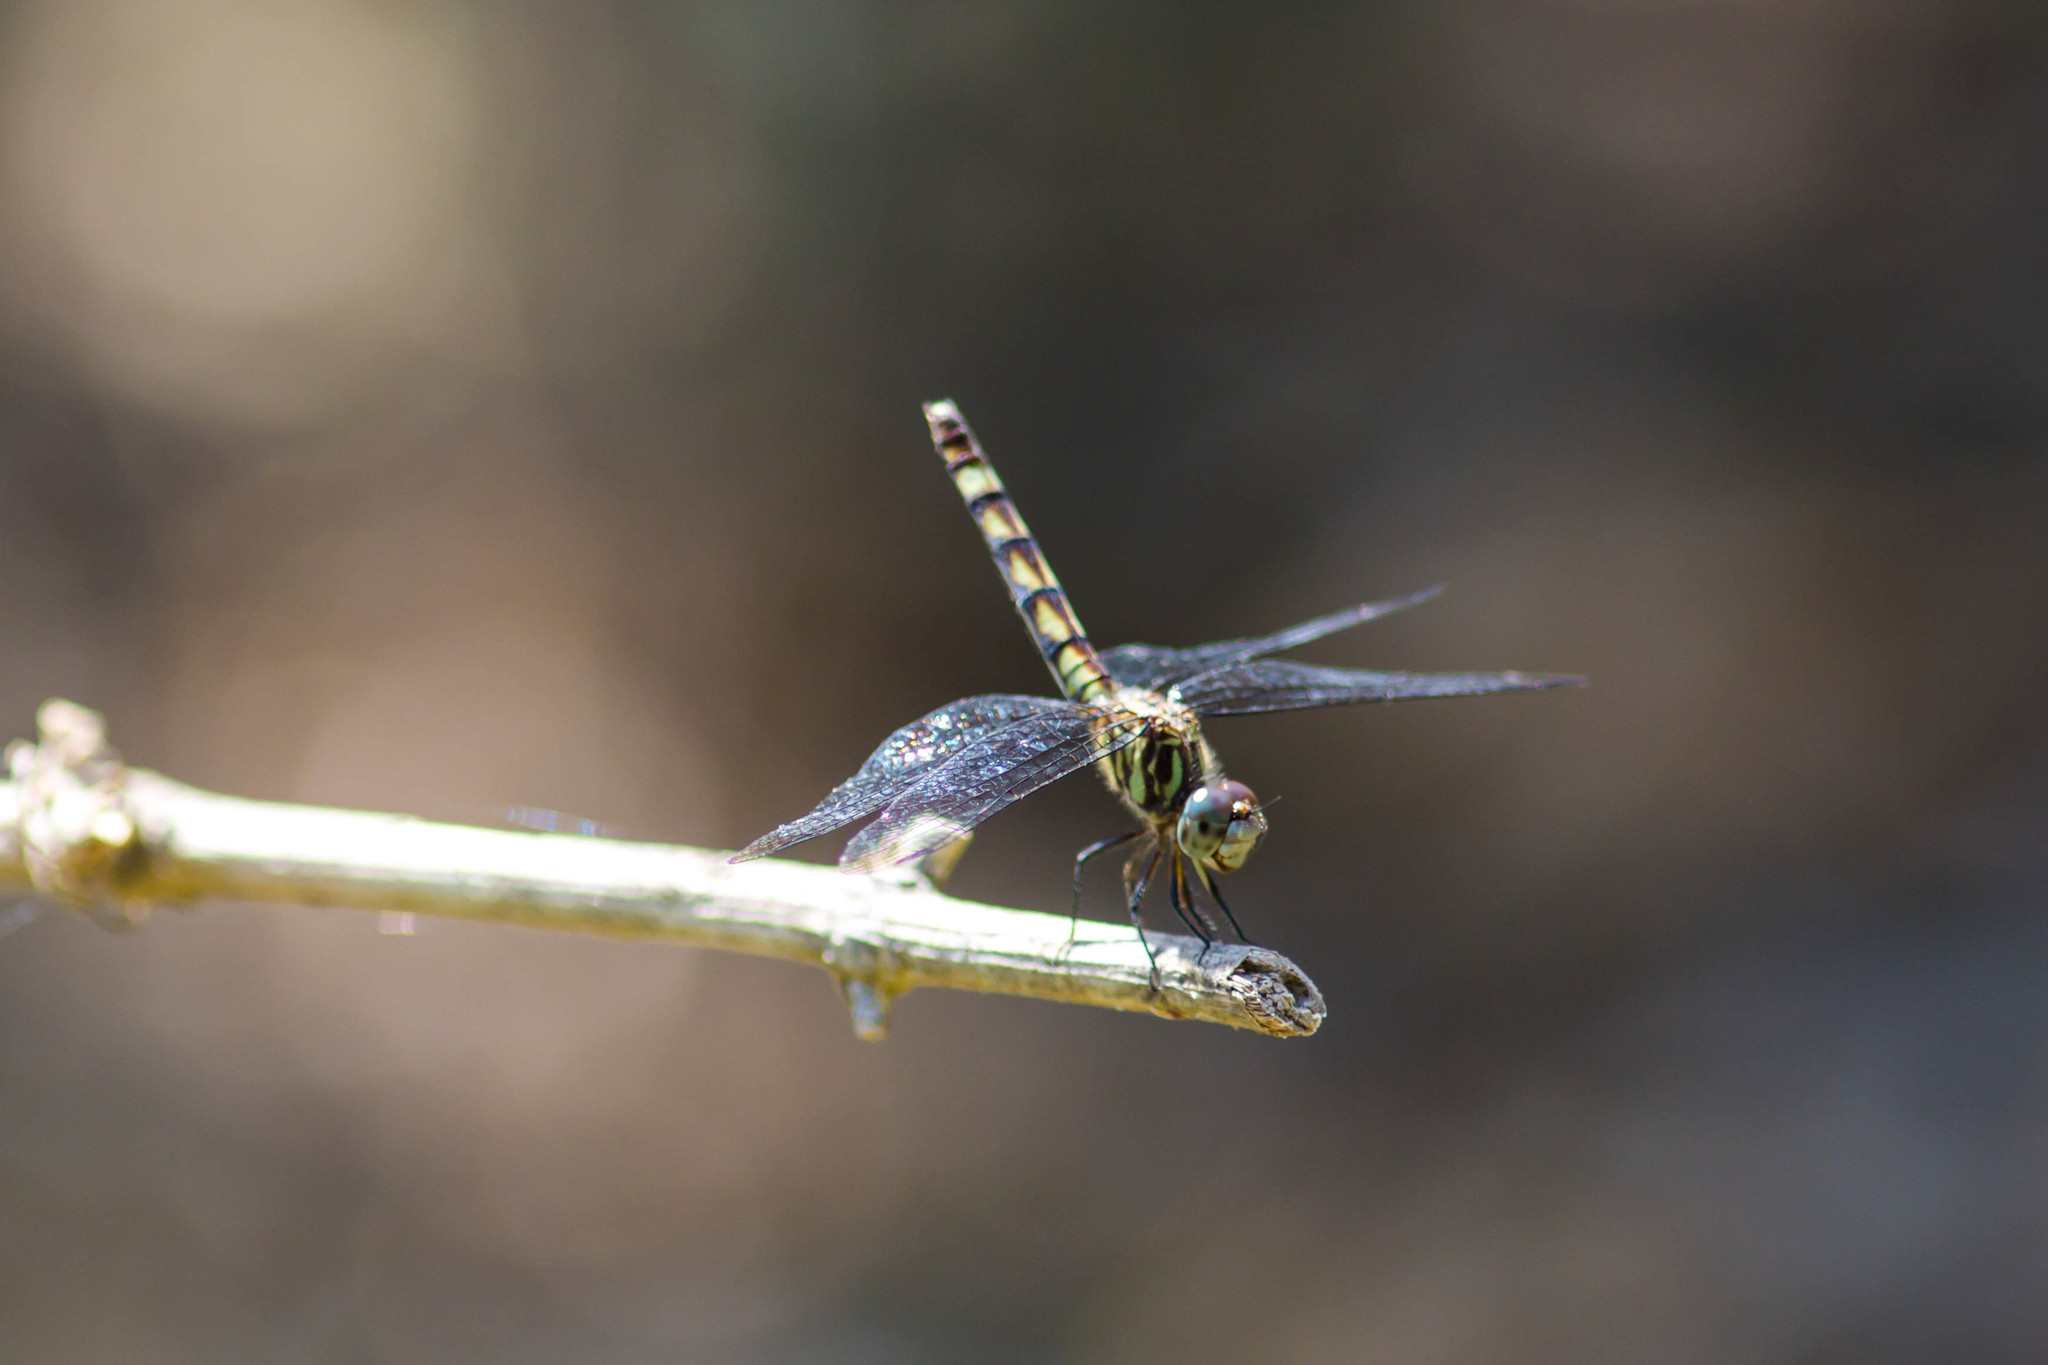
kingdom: Animalia
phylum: Arthropoda
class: Insecta
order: Odonata
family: Libellulidae
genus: Micrathyria
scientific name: Micrathyria hagenii
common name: Thornbush dasher
